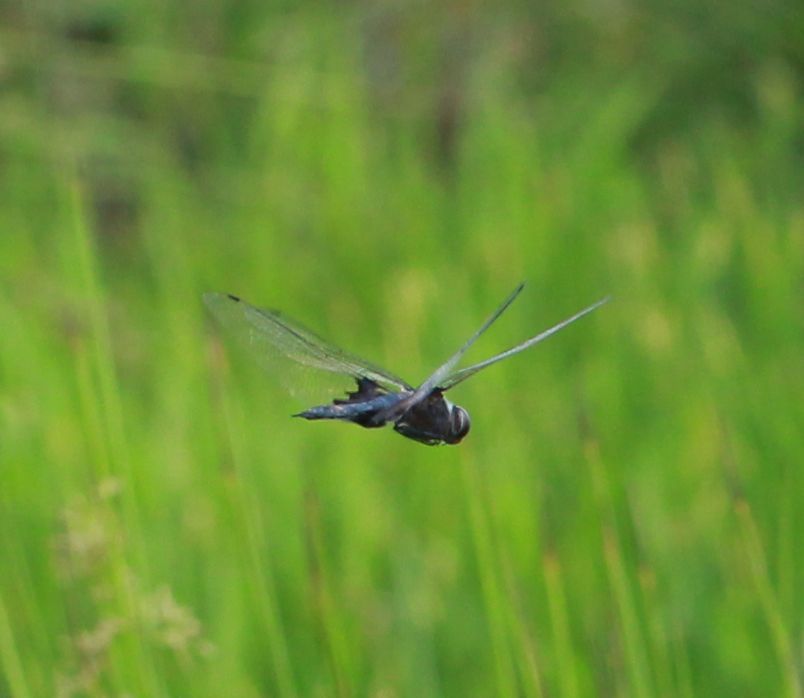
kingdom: Animalia
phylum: Arthropoda
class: Insecta
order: Odonata
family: Libellulidae
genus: Tramea
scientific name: Tramea lacerata
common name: Black saddlebags
